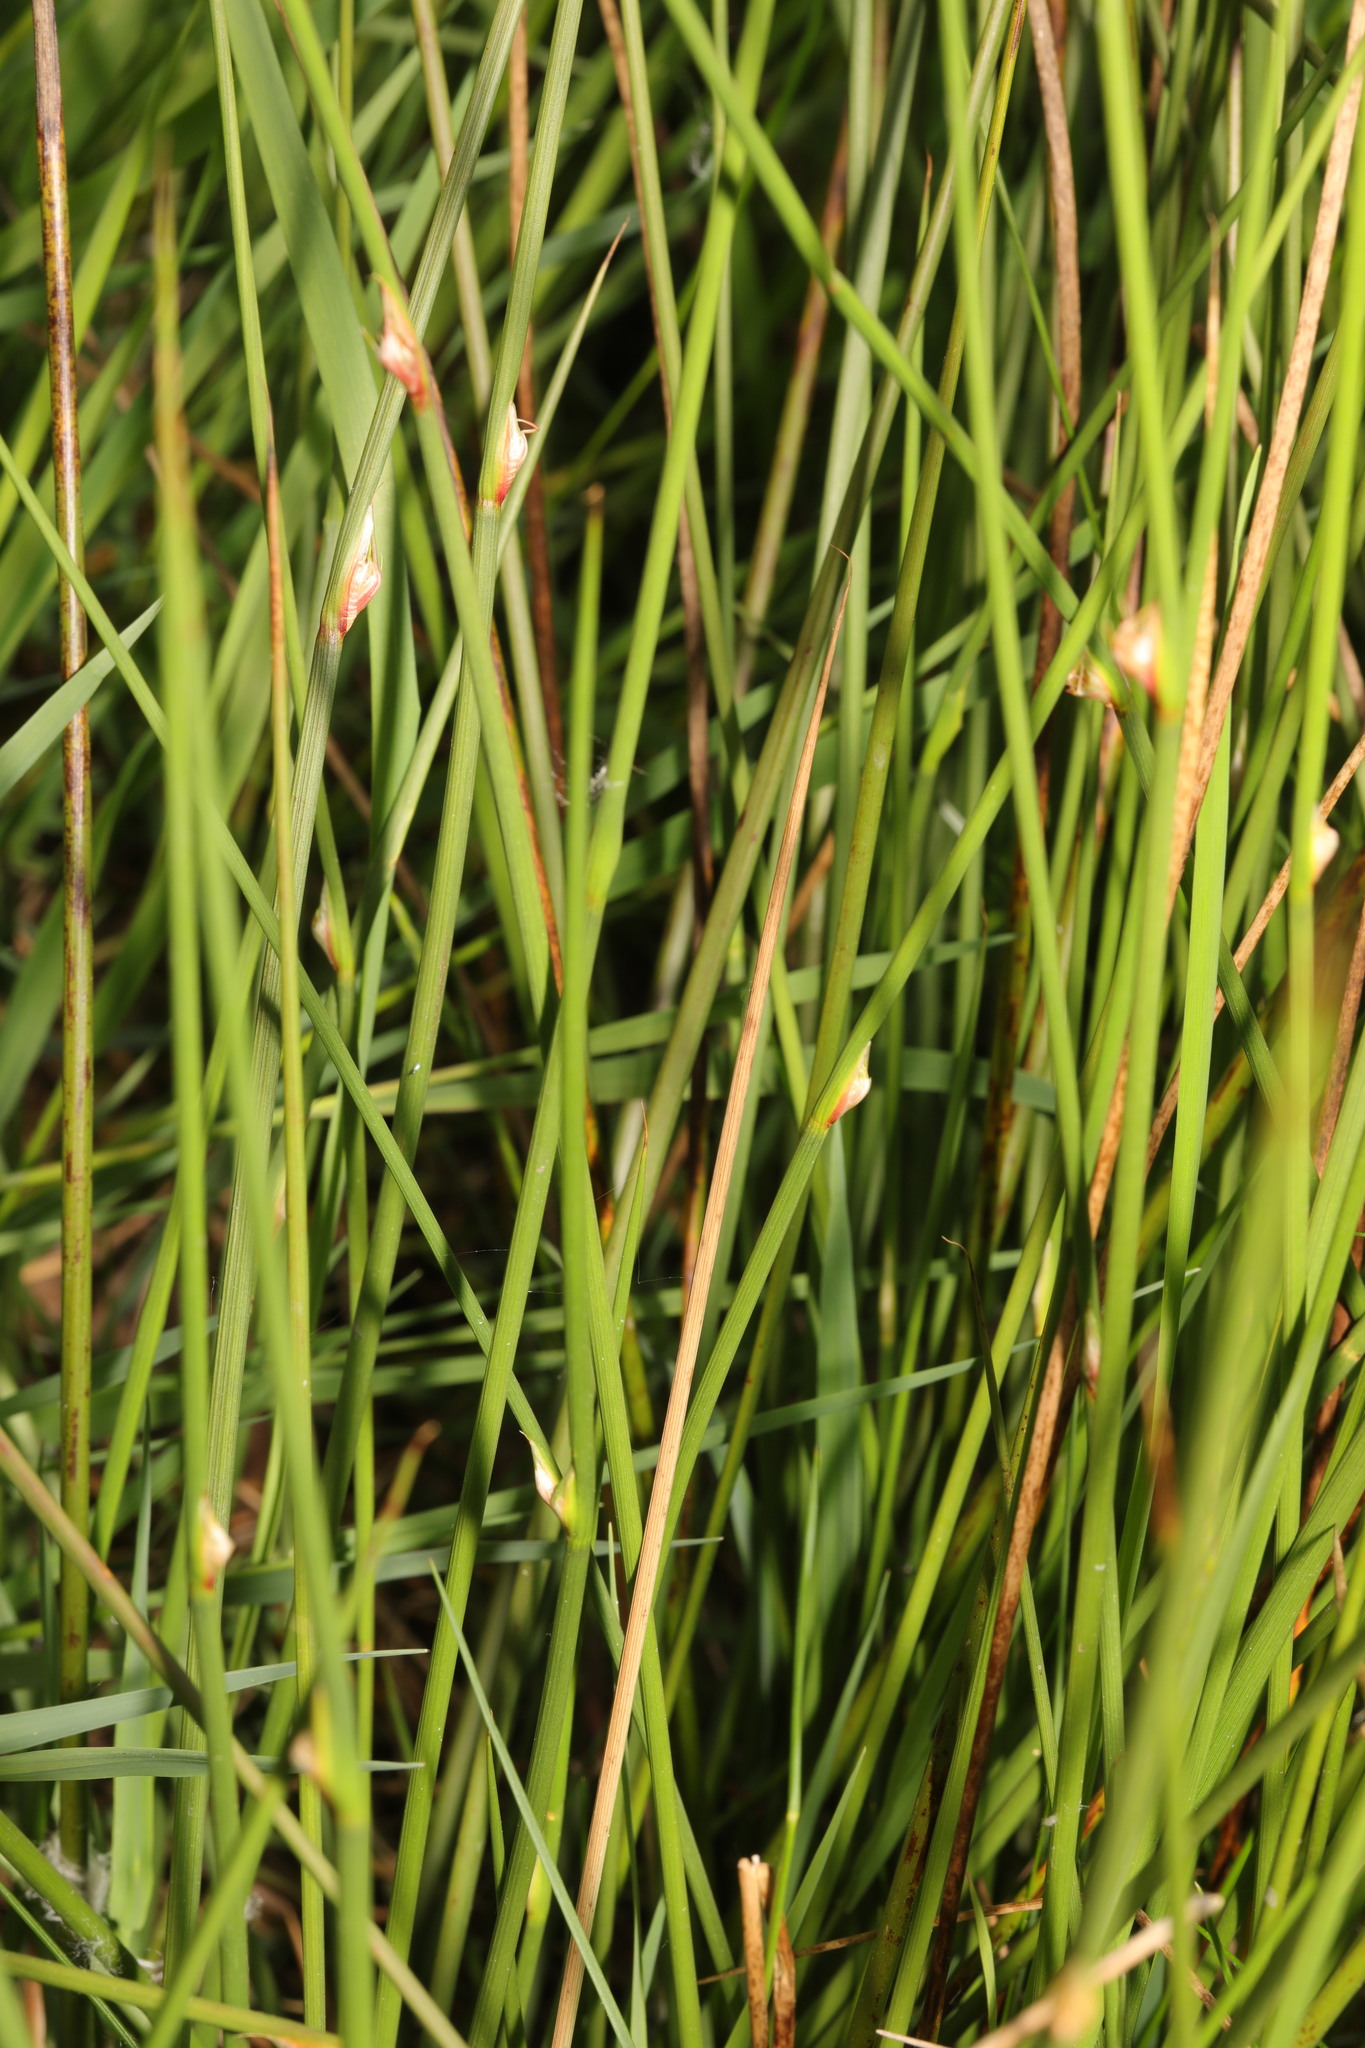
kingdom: Plantae
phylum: Tracheophyta
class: Liliopsida
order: Poales
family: Juncaceae
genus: Juncus
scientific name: Juncus conglomeratus
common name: Compact rush
